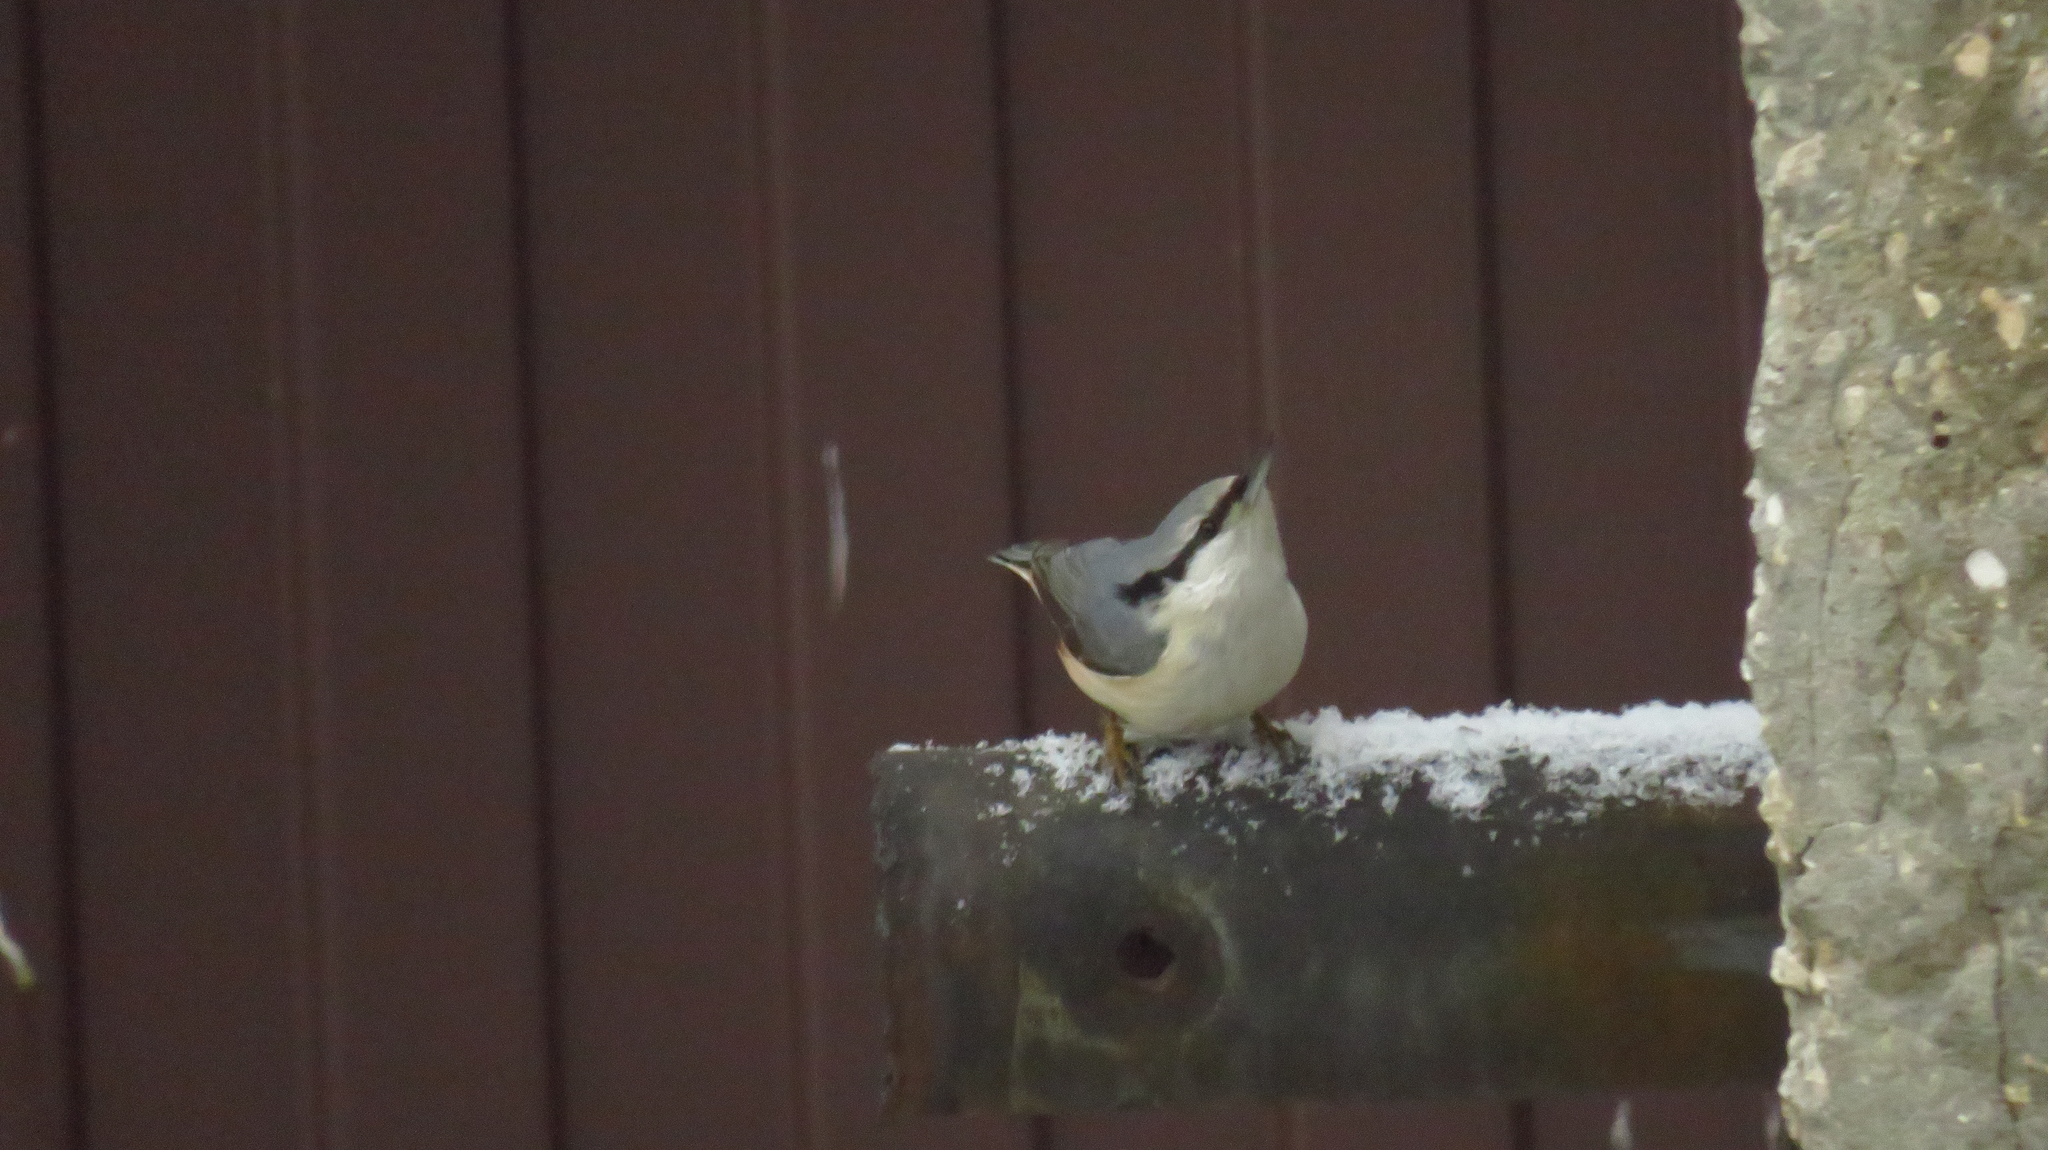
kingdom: Animalia
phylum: Chordata
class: Aves
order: Passeriformes
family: Sittidae
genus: Sitta
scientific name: Sitta europaea
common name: Eurasian nuthatch
